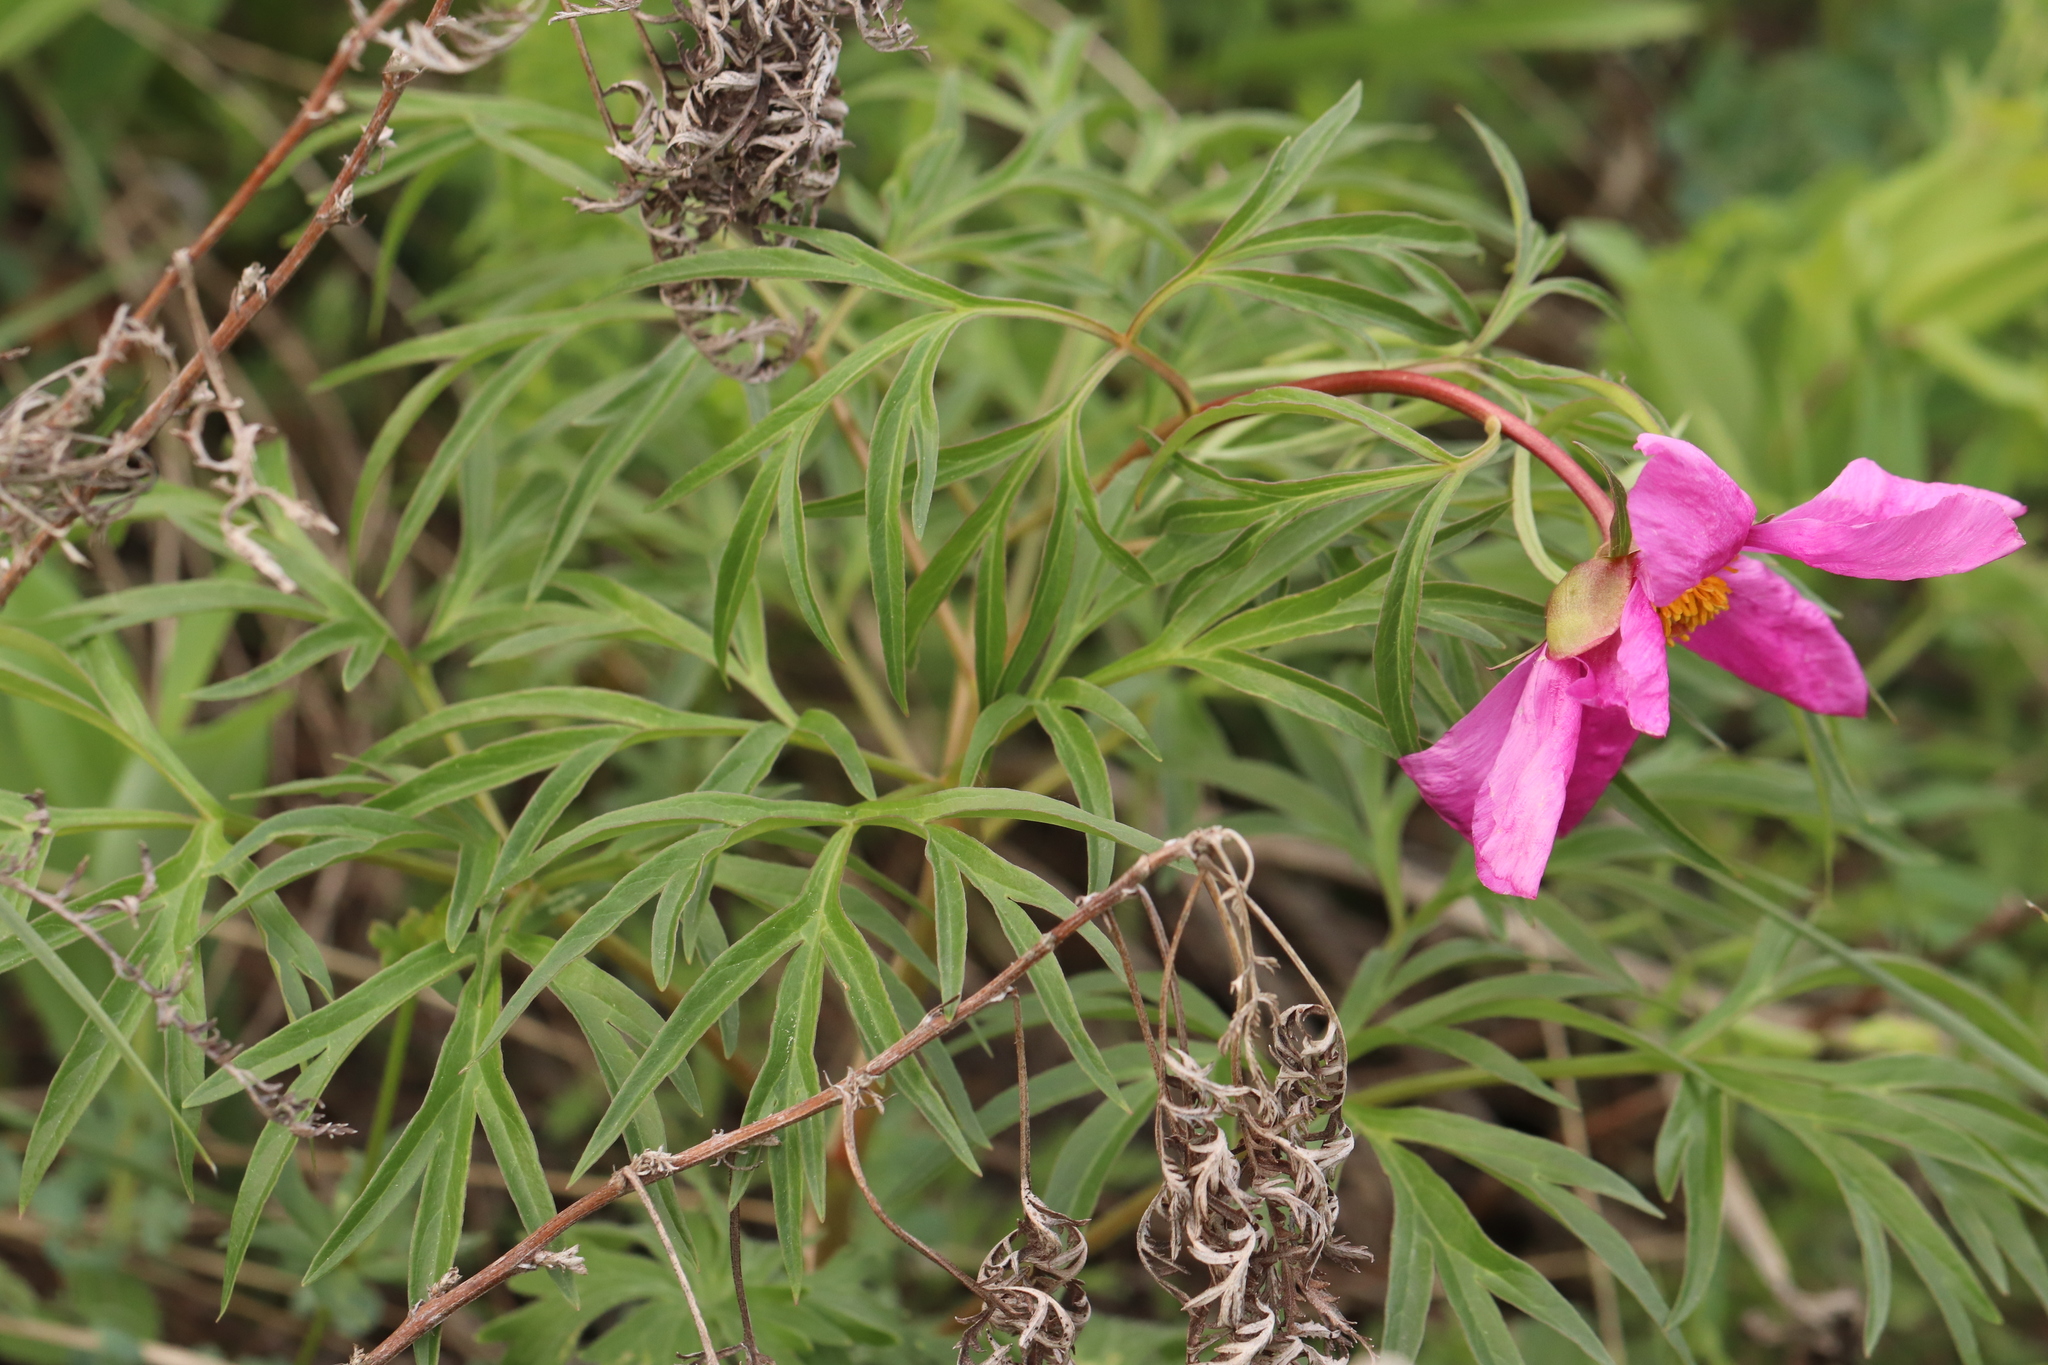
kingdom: Plantae
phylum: Tracheophyta
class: Magnoliopsida
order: Saxifragales
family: Paeoniaceae
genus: Paeonia
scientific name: Paeonia
